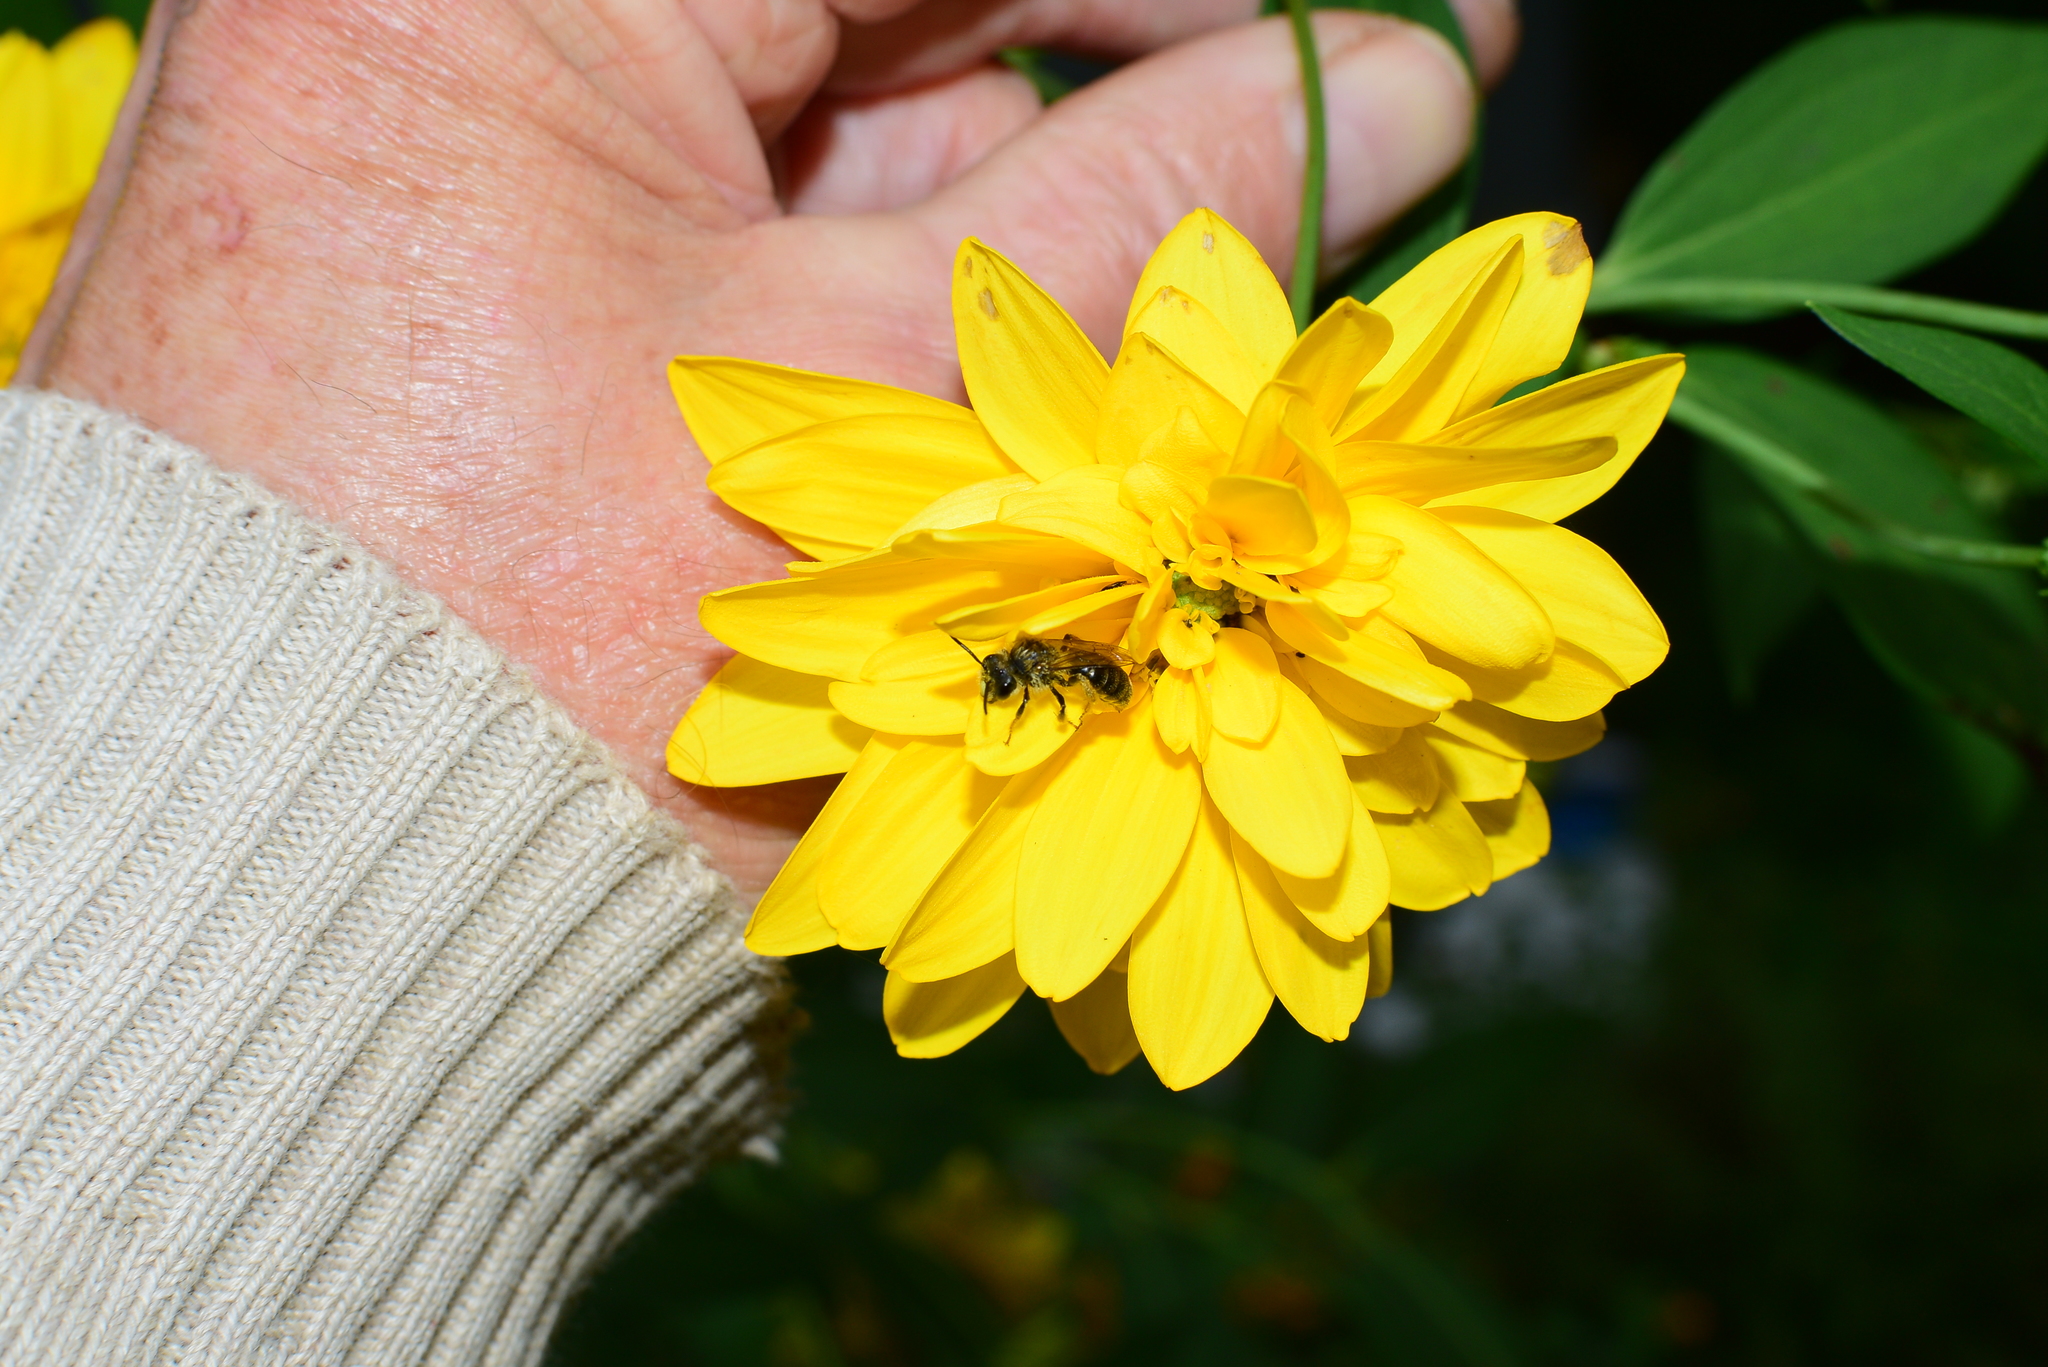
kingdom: Animalia
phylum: Arthropoda
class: Insecta
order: Hymenoptera
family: Andrenidae
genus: Andrena
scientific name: Andrena helianthi
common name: Sunflower mining bee
